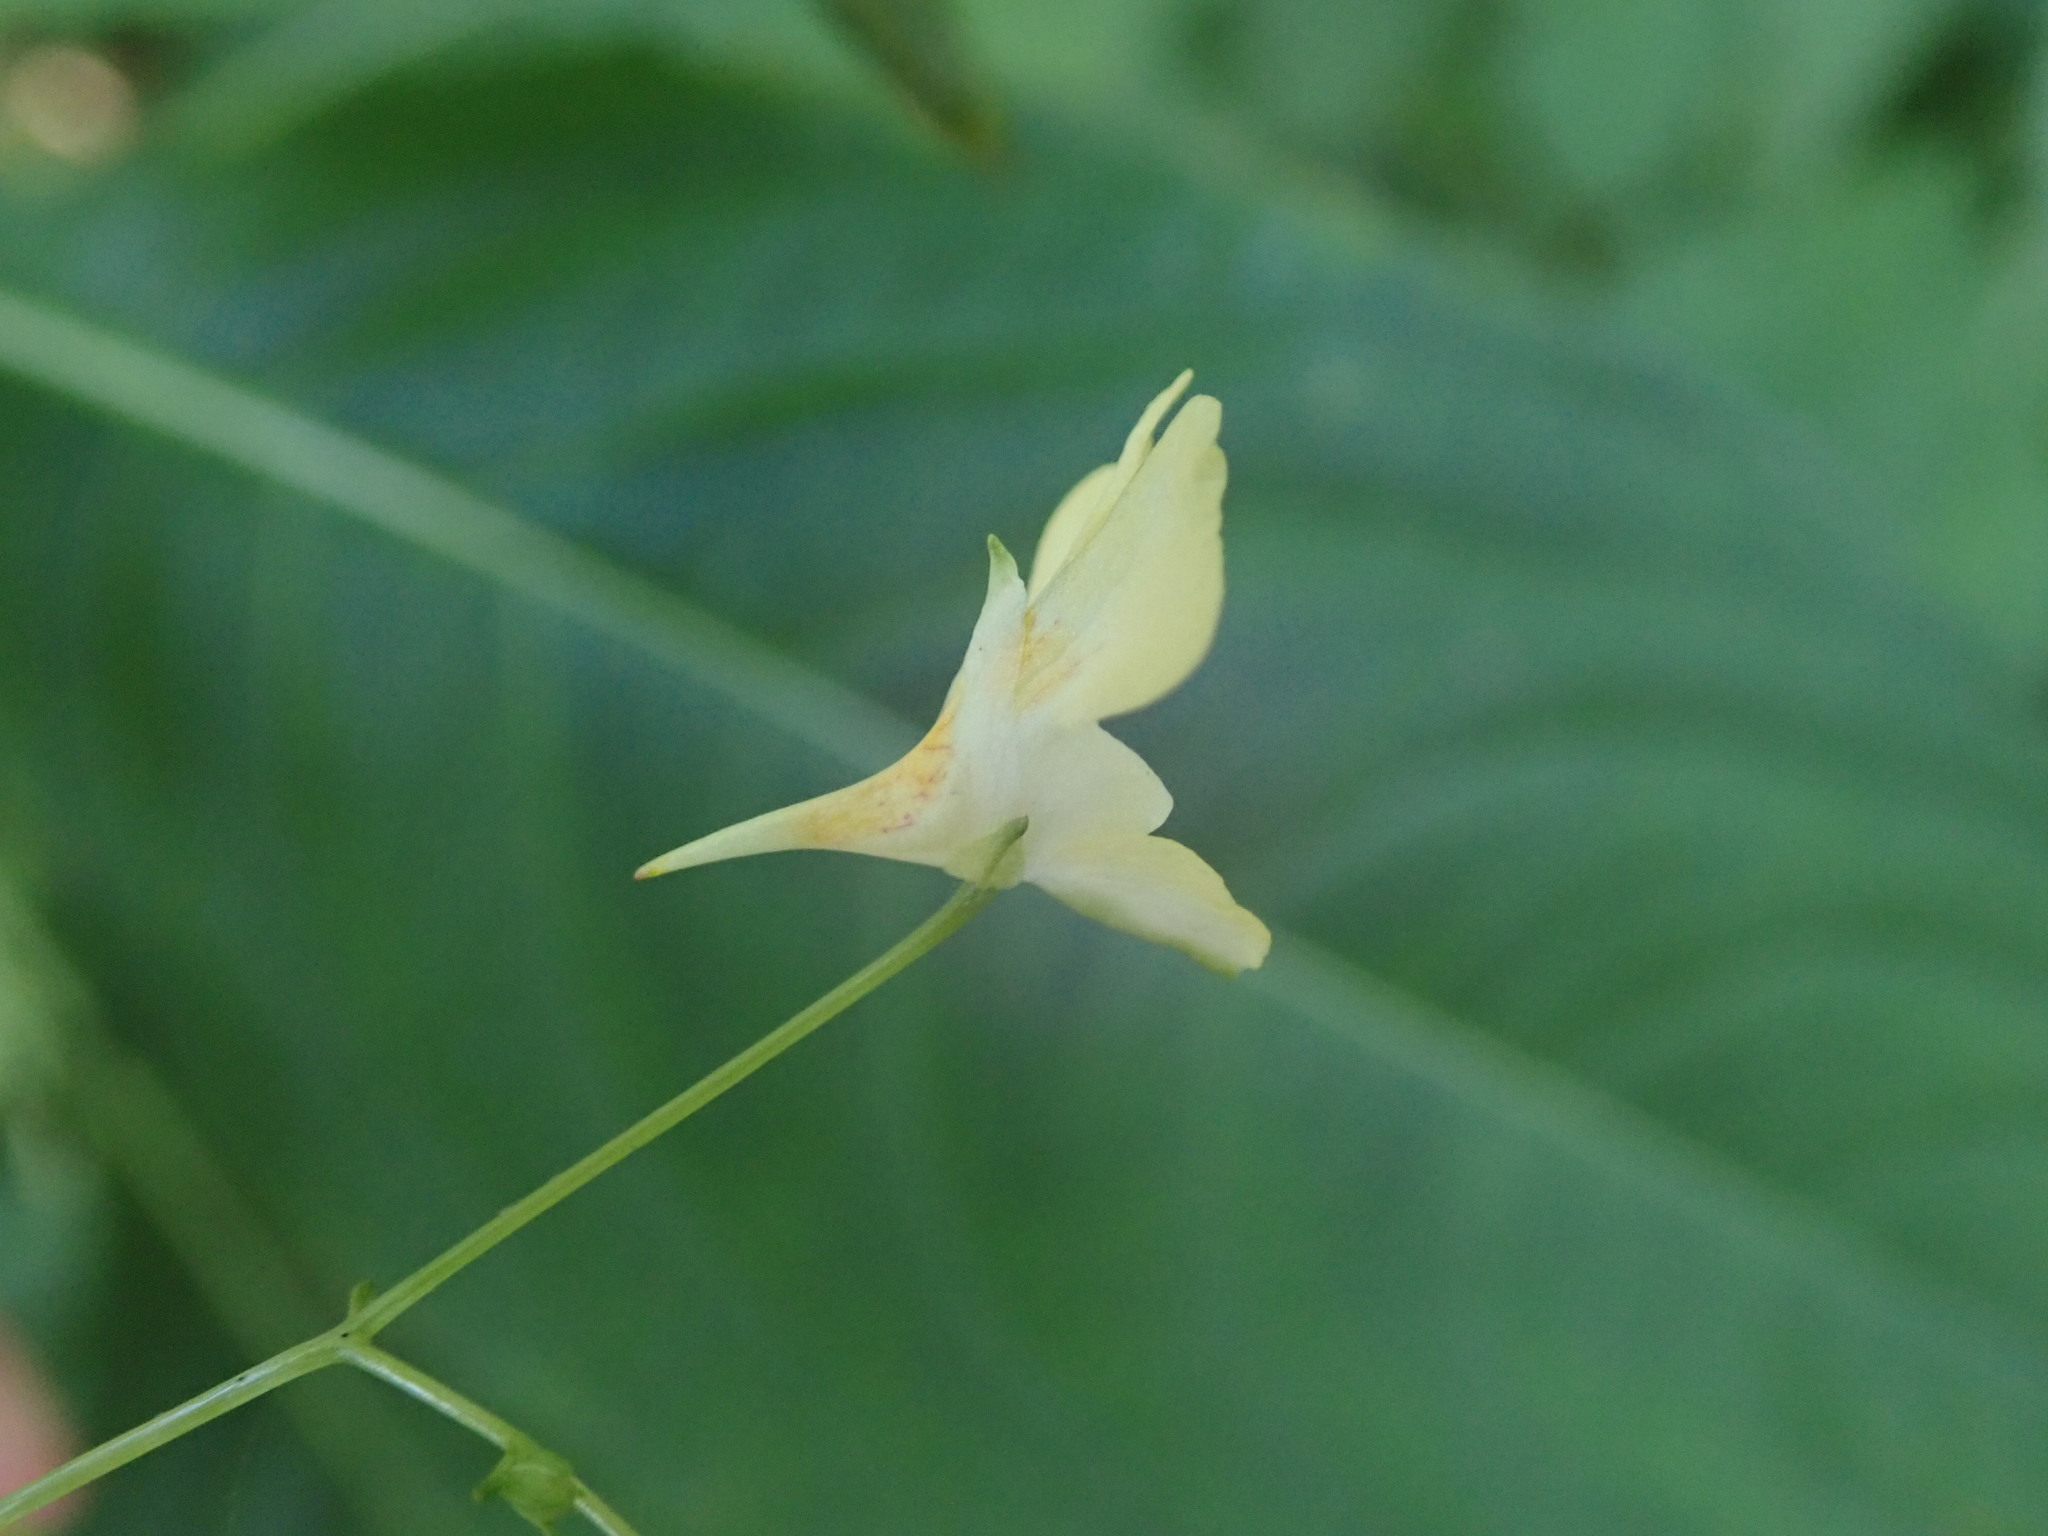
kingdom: Plantae
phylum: Tracheophyta
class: Magnoliopsida
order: Ericales
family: Balsaminaceae
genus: Impatiens
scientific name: Impatiens parviflora
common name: Small balsam
